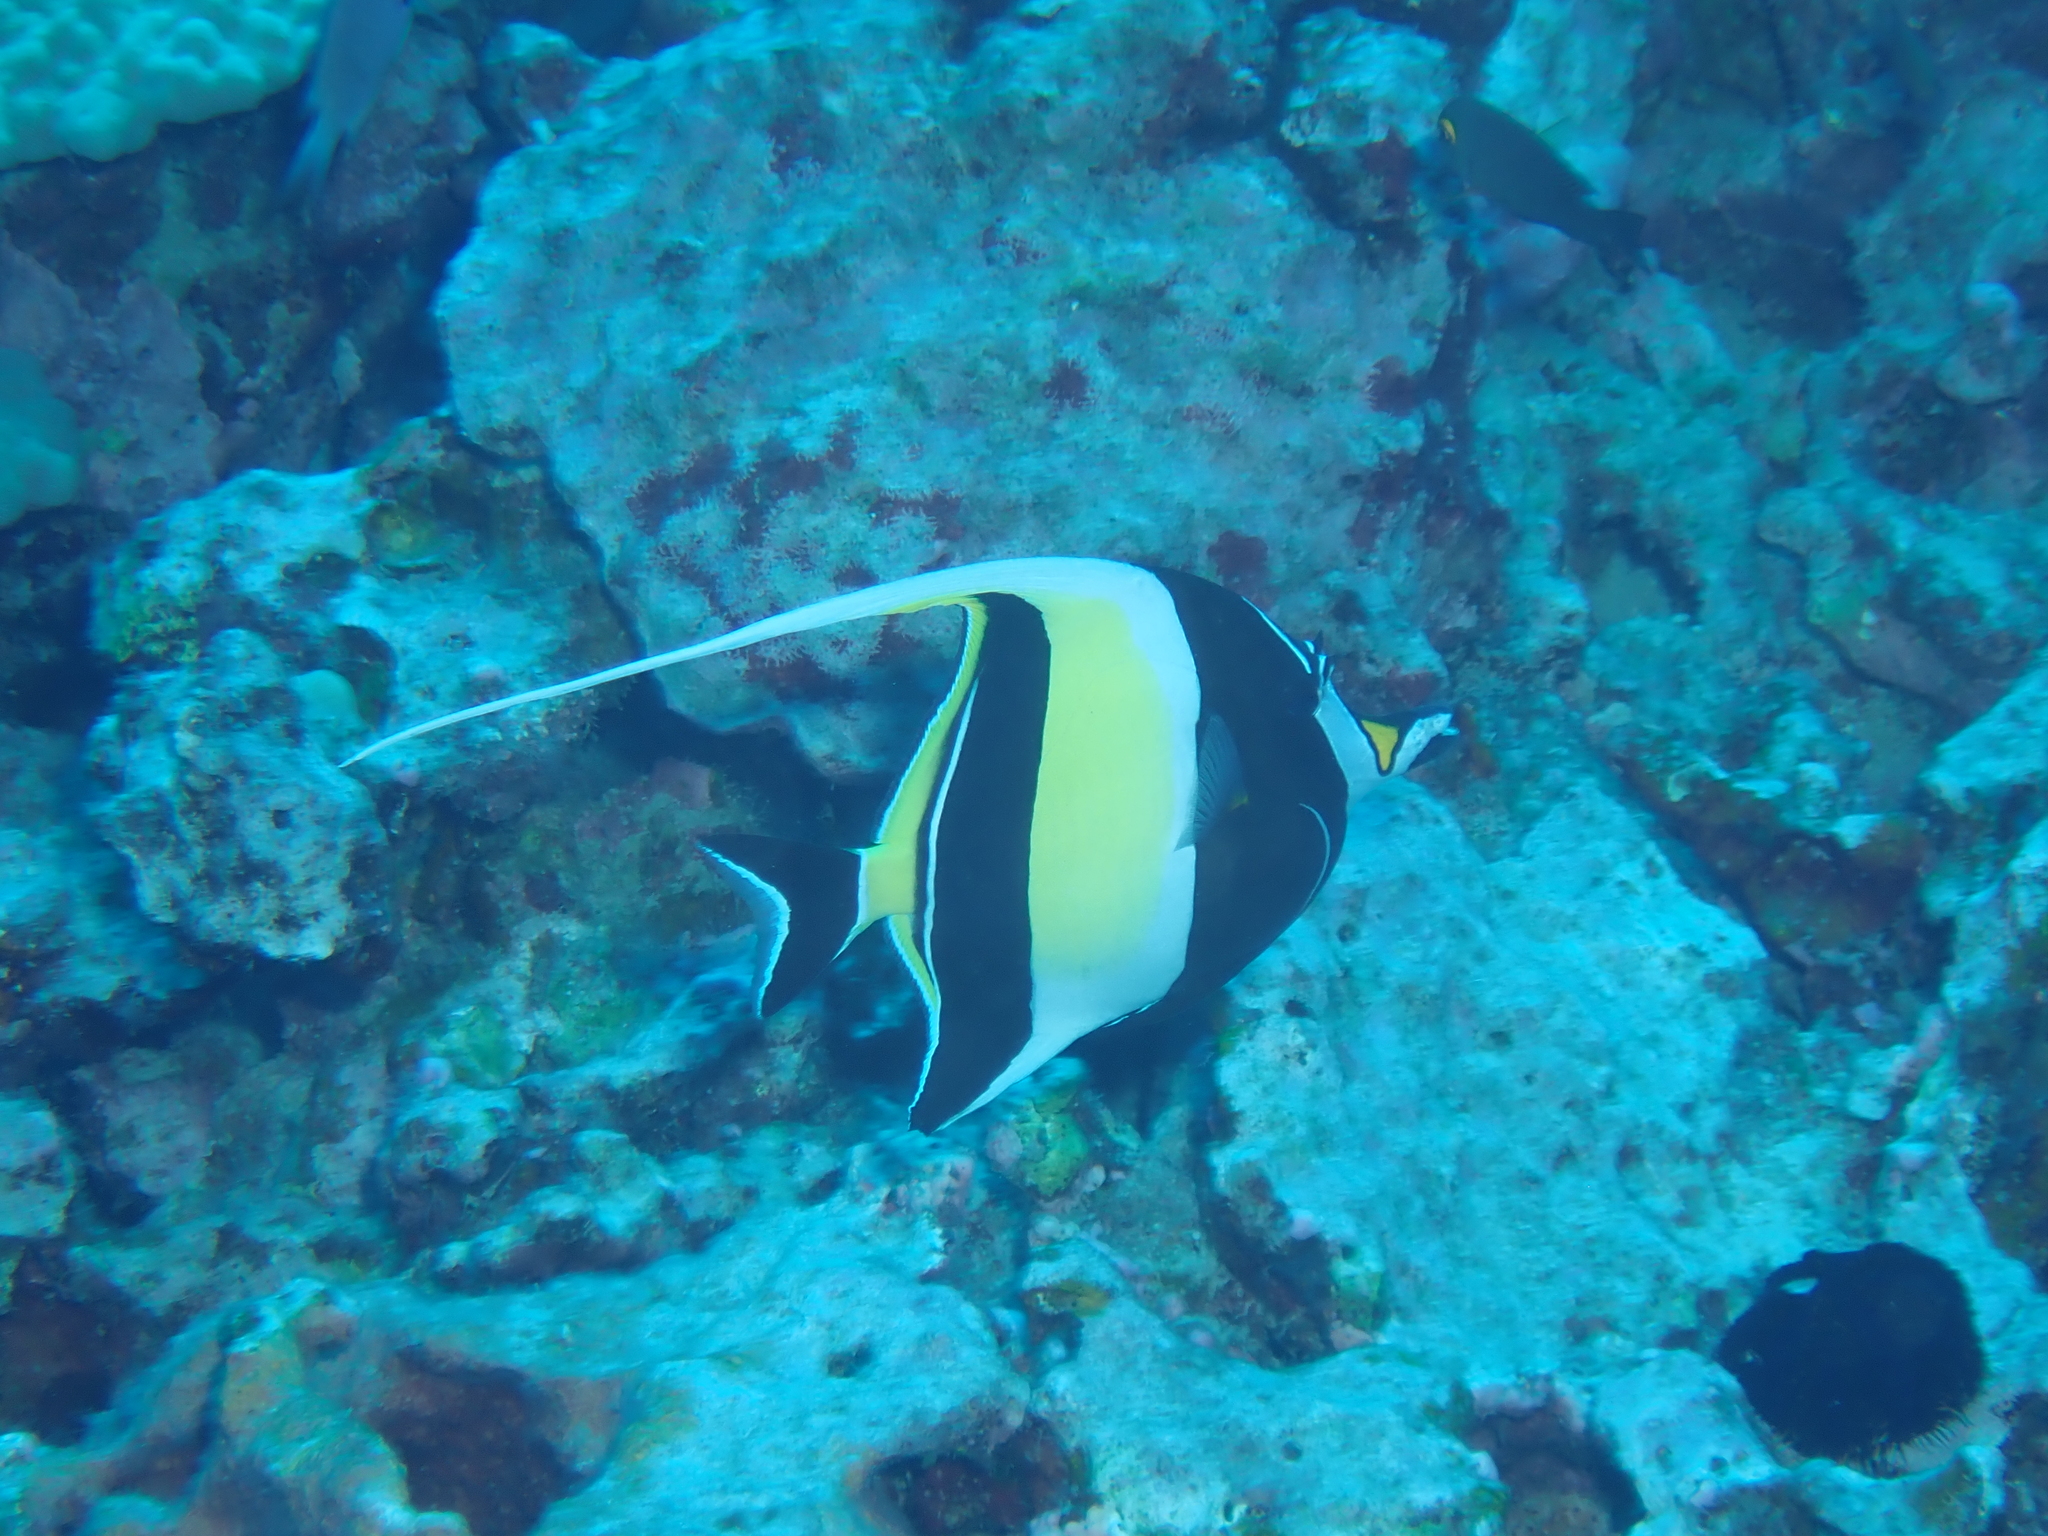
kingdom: Animalia
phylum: Chordata
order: Perciformes
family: Zanclidae
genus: Zanclus
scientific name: Zanclus cornutus
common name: Moorish idol
